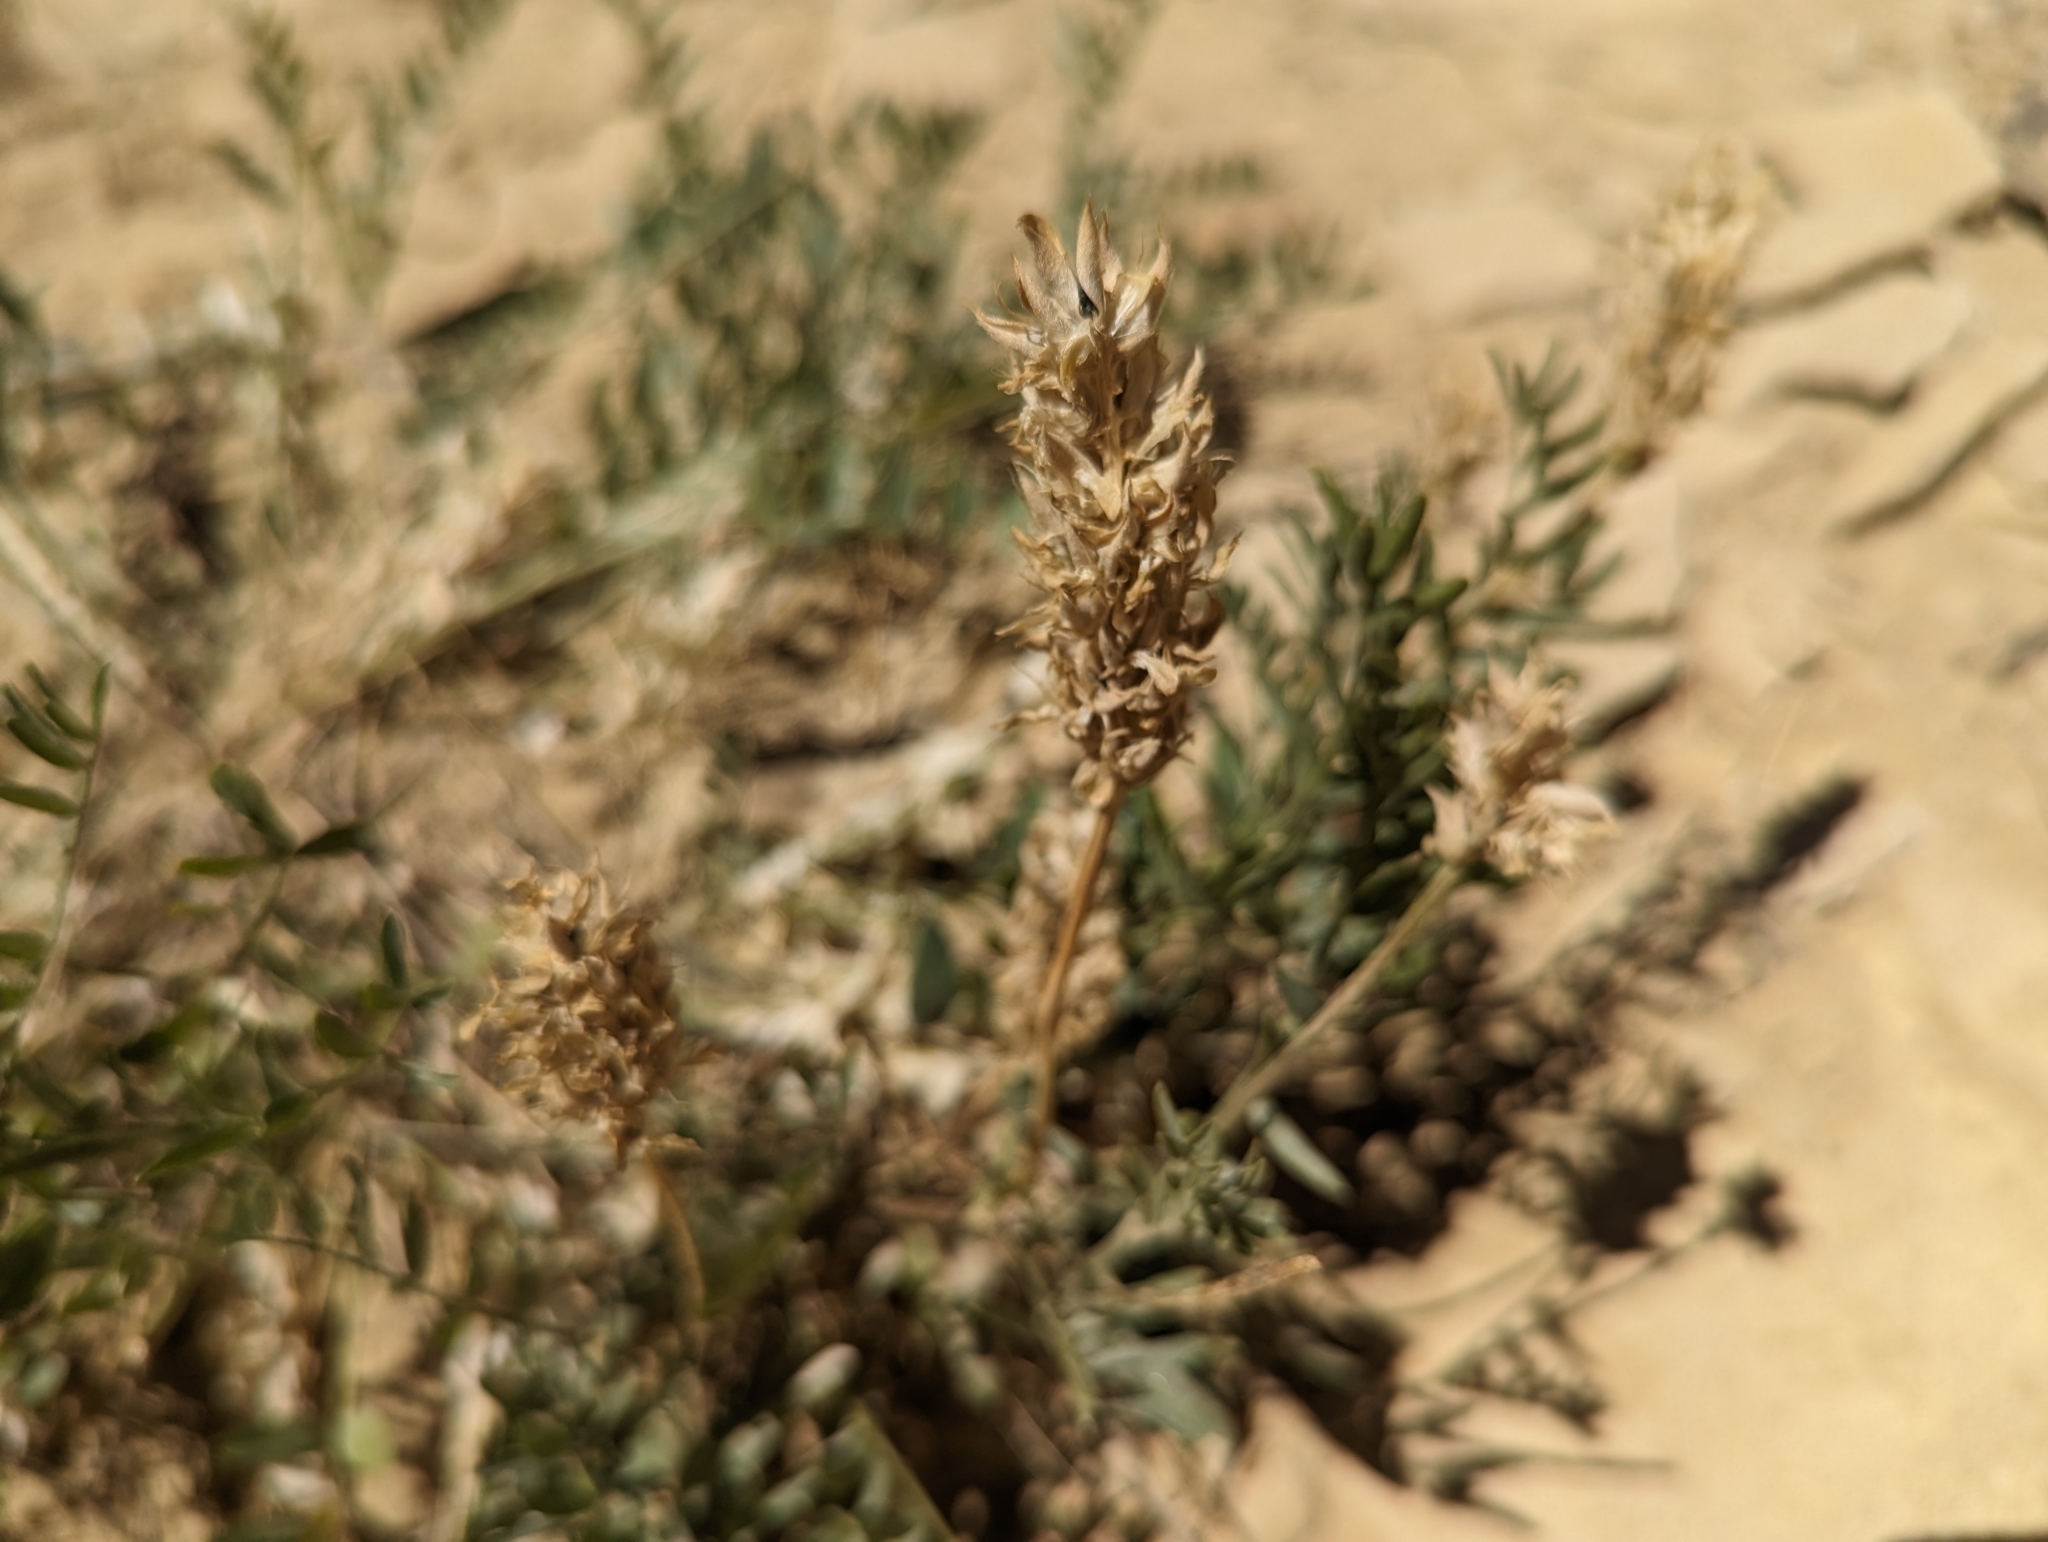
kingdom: Plantae
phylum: Tracheophyta
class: Magnoliopsida
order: Fabales
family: Fabaceae
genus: Astragalus
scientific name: Astragalus laxmannii
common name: Laxmann's milk-vetch
